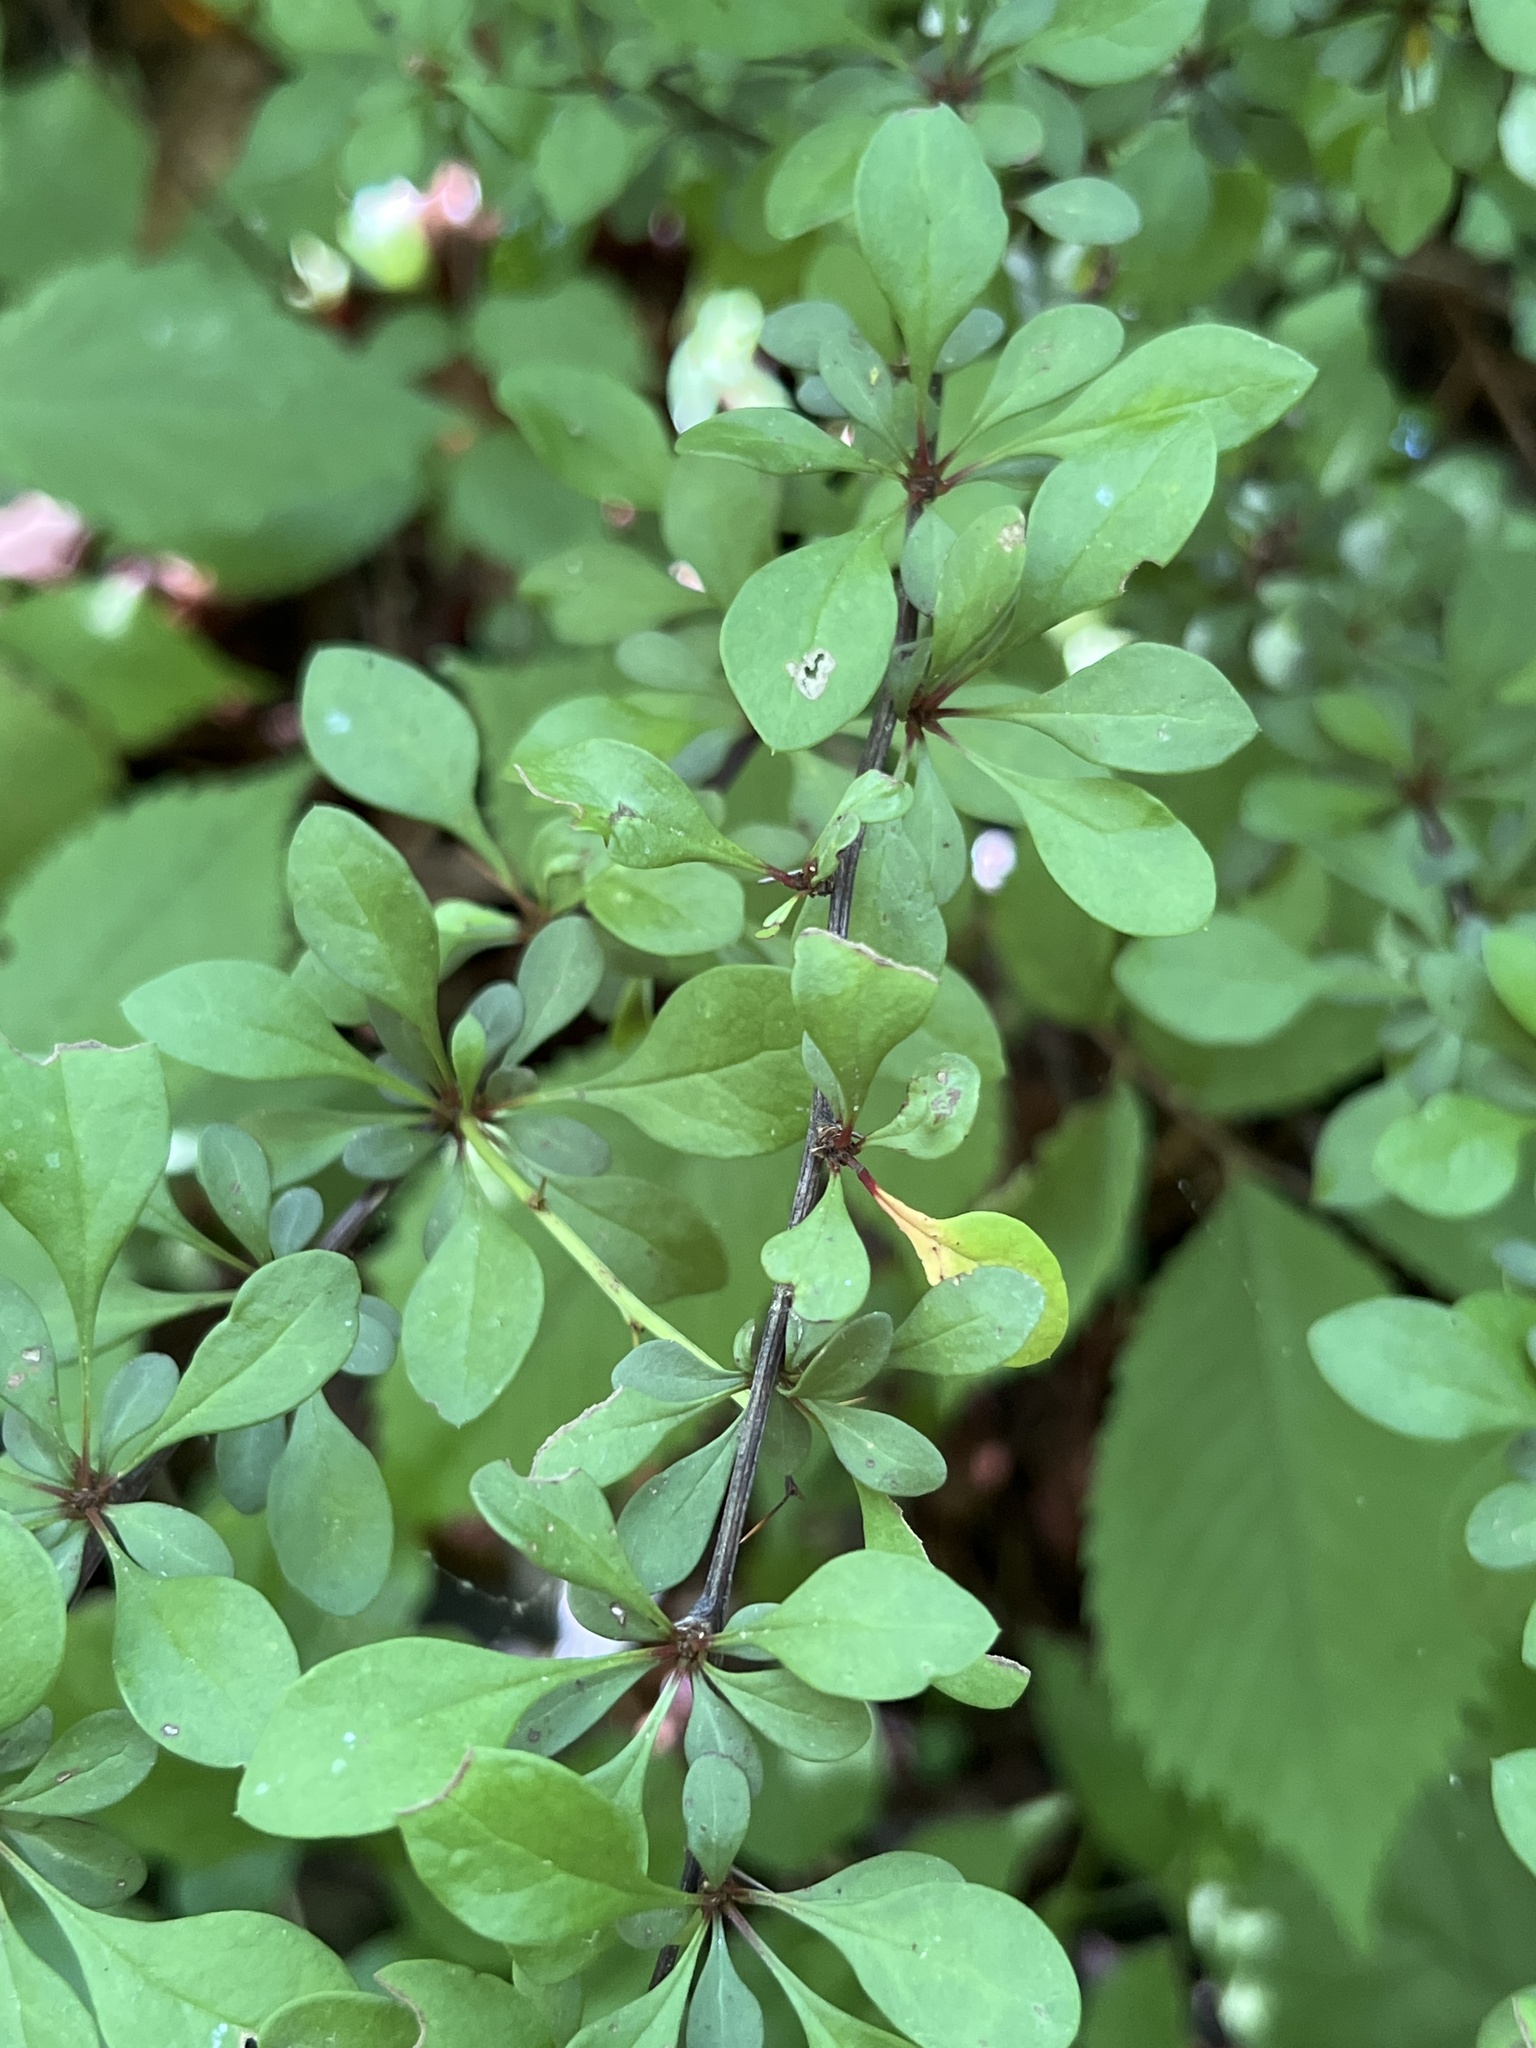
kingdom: Plantae
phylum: Tracheophyta
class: Magnoliopsida
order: Ranunculales
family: Berberidaceae
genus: Berberis
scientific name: Berberis thunbergii
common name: Japanese barberry
